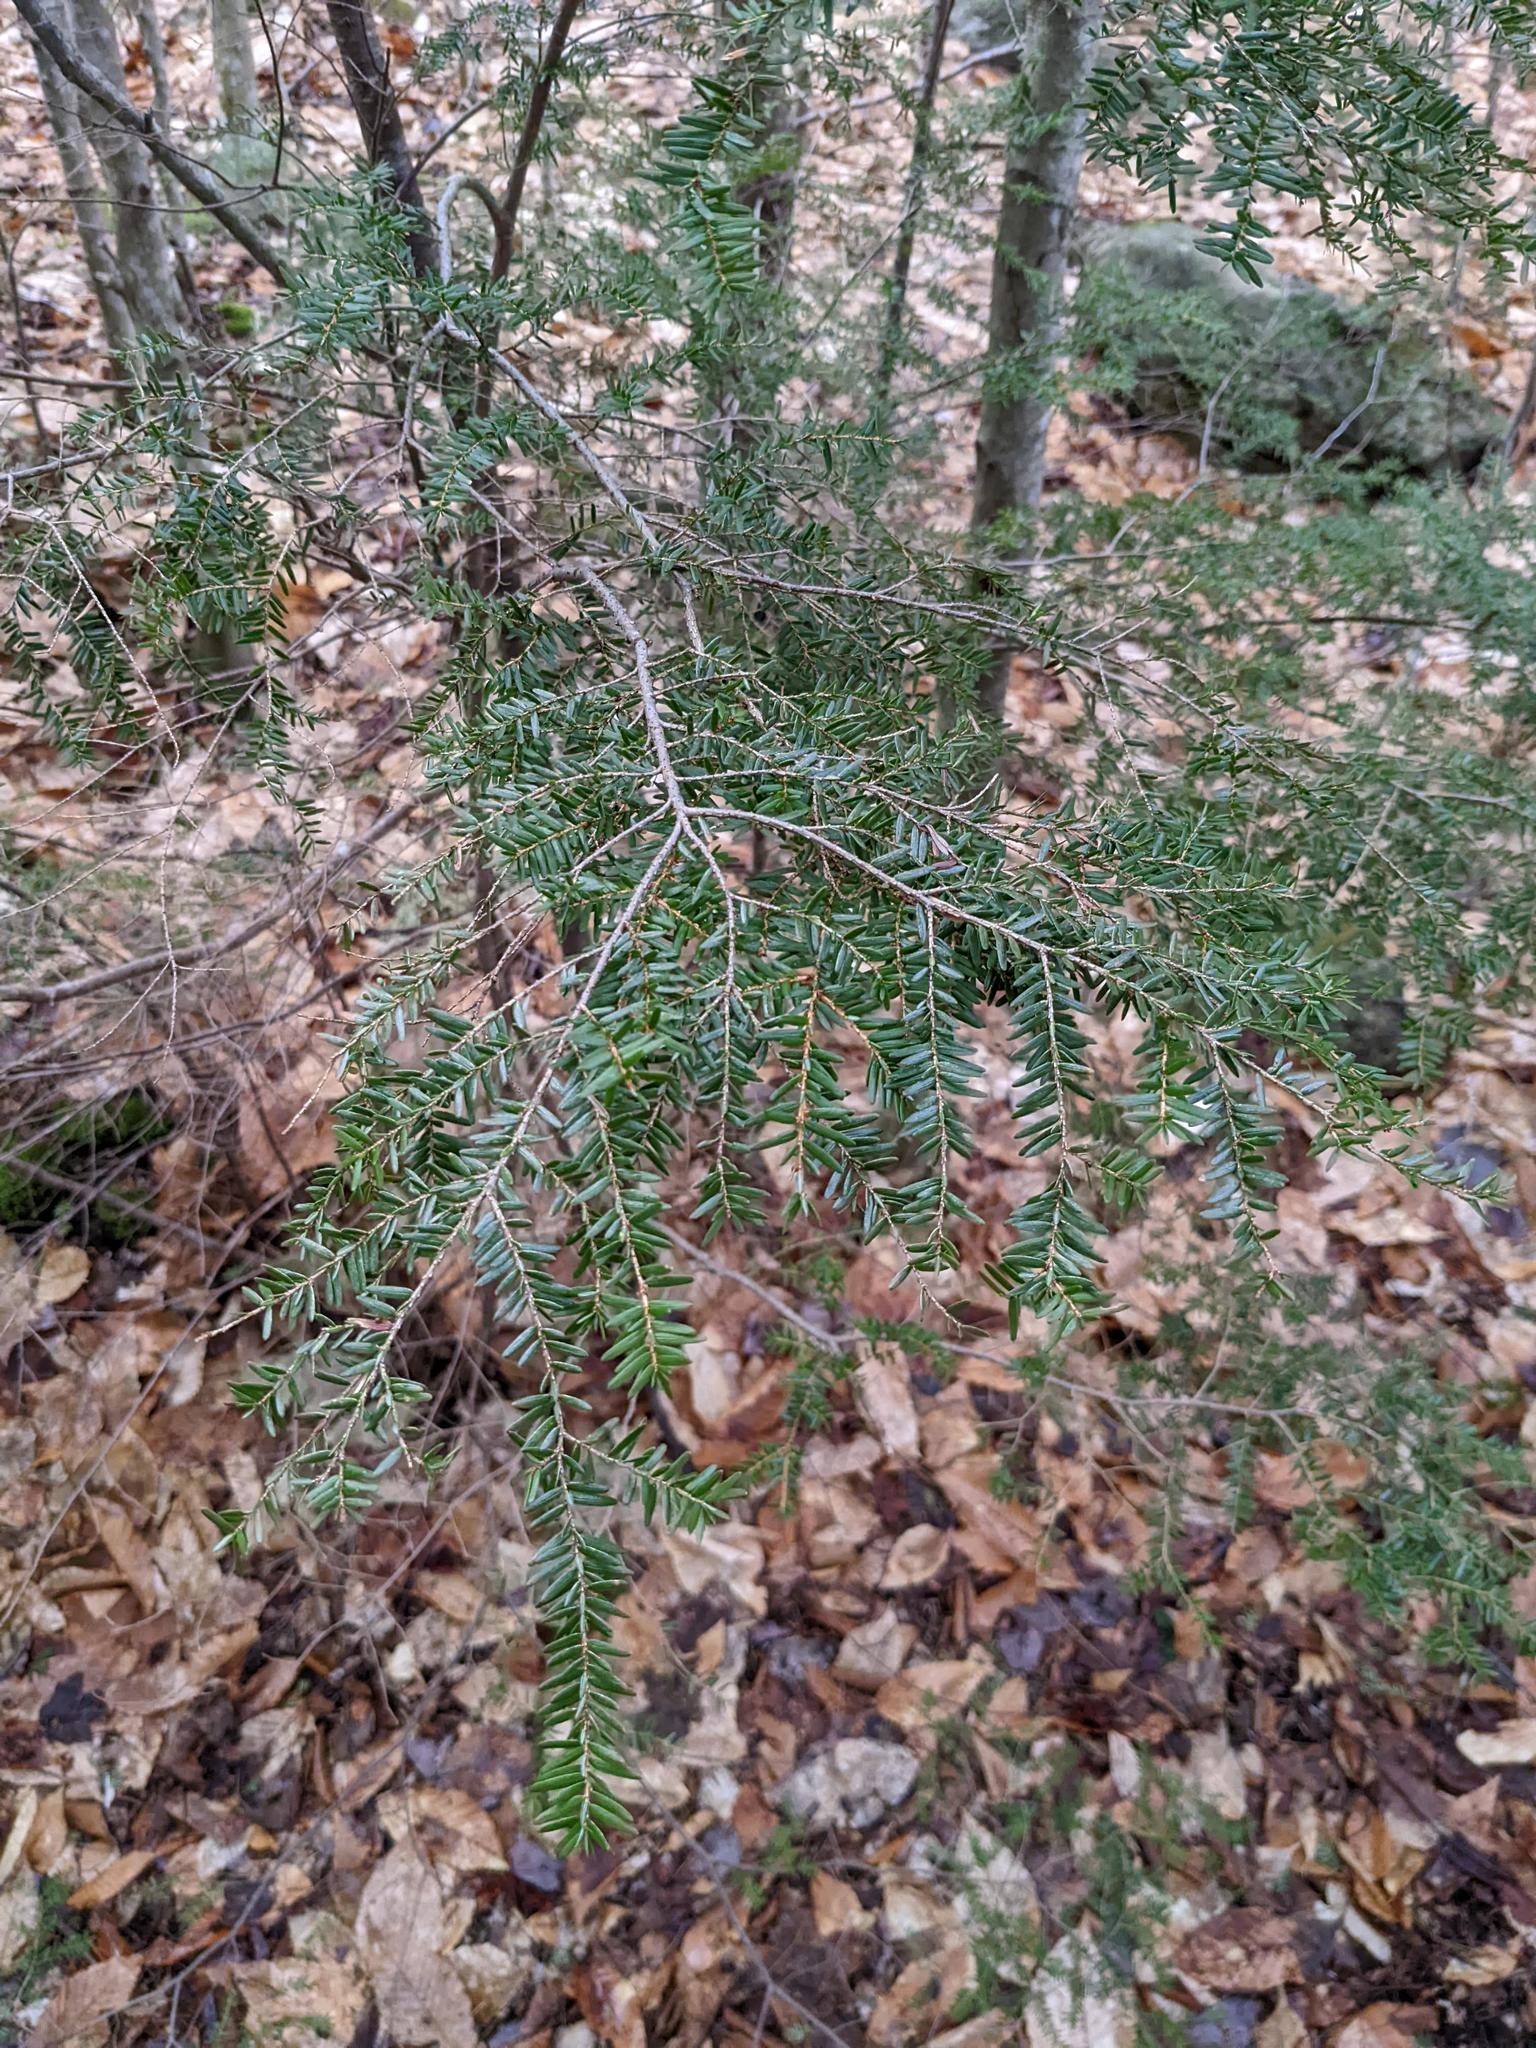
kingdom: Plantae
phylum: Tracheophyta
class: Pinopsida
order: Pinales
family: Pinaceae
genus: Tsuga
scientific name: Tsuga canadensis
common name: Eastern hemlock
